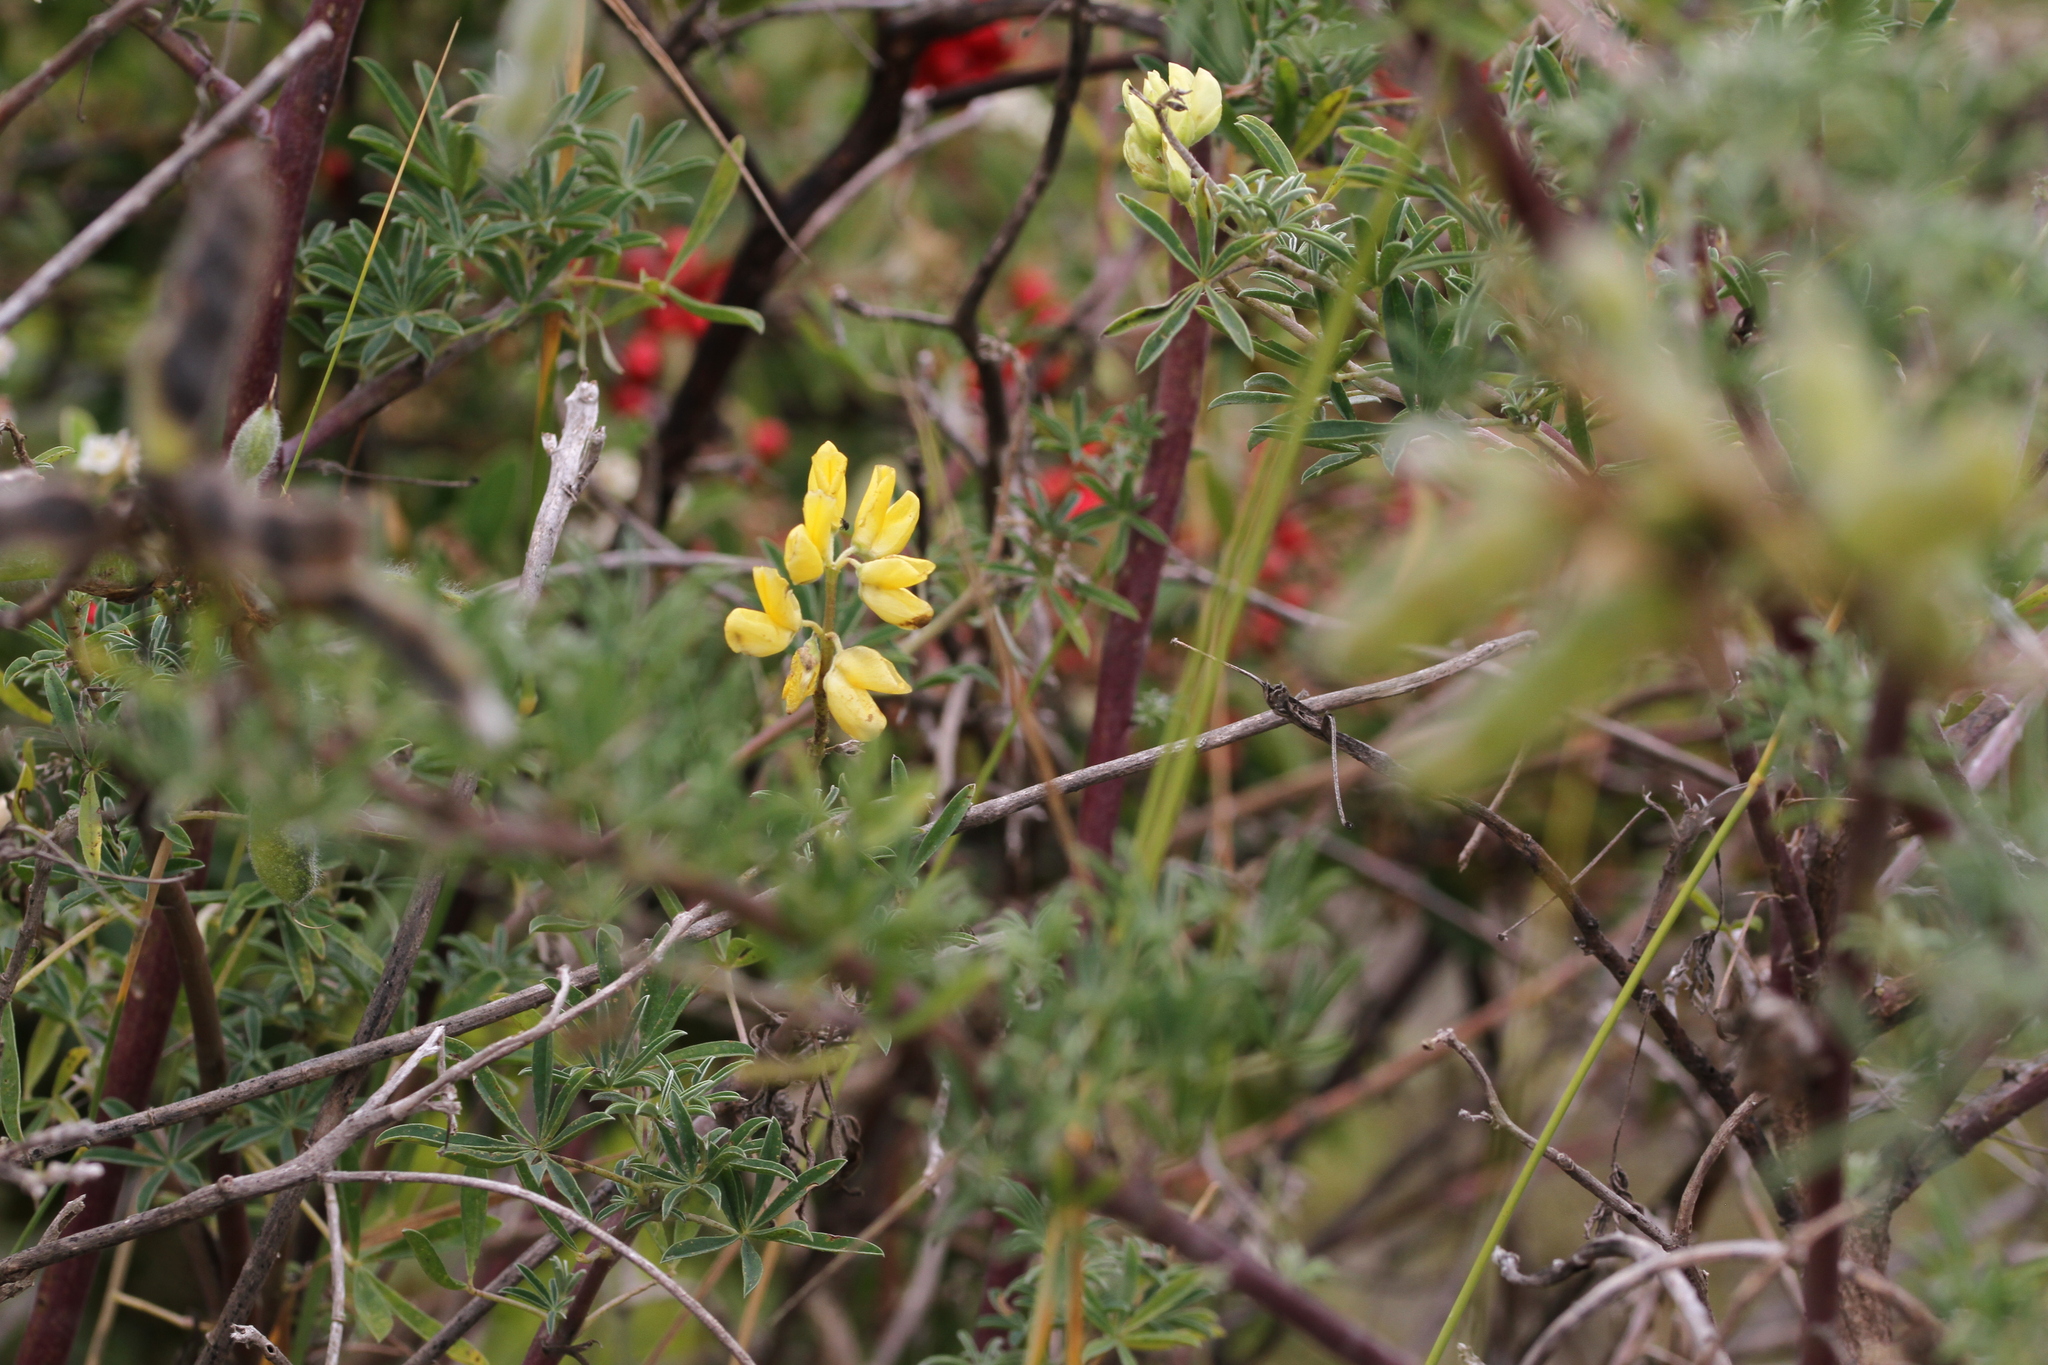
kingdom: Plantae
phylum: Tracheophyta
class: Magnoliopsida
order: Fabales
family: Fabaceae
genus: Lupinus
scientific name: Lupinus arboreus
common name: Yellow bush lupine
